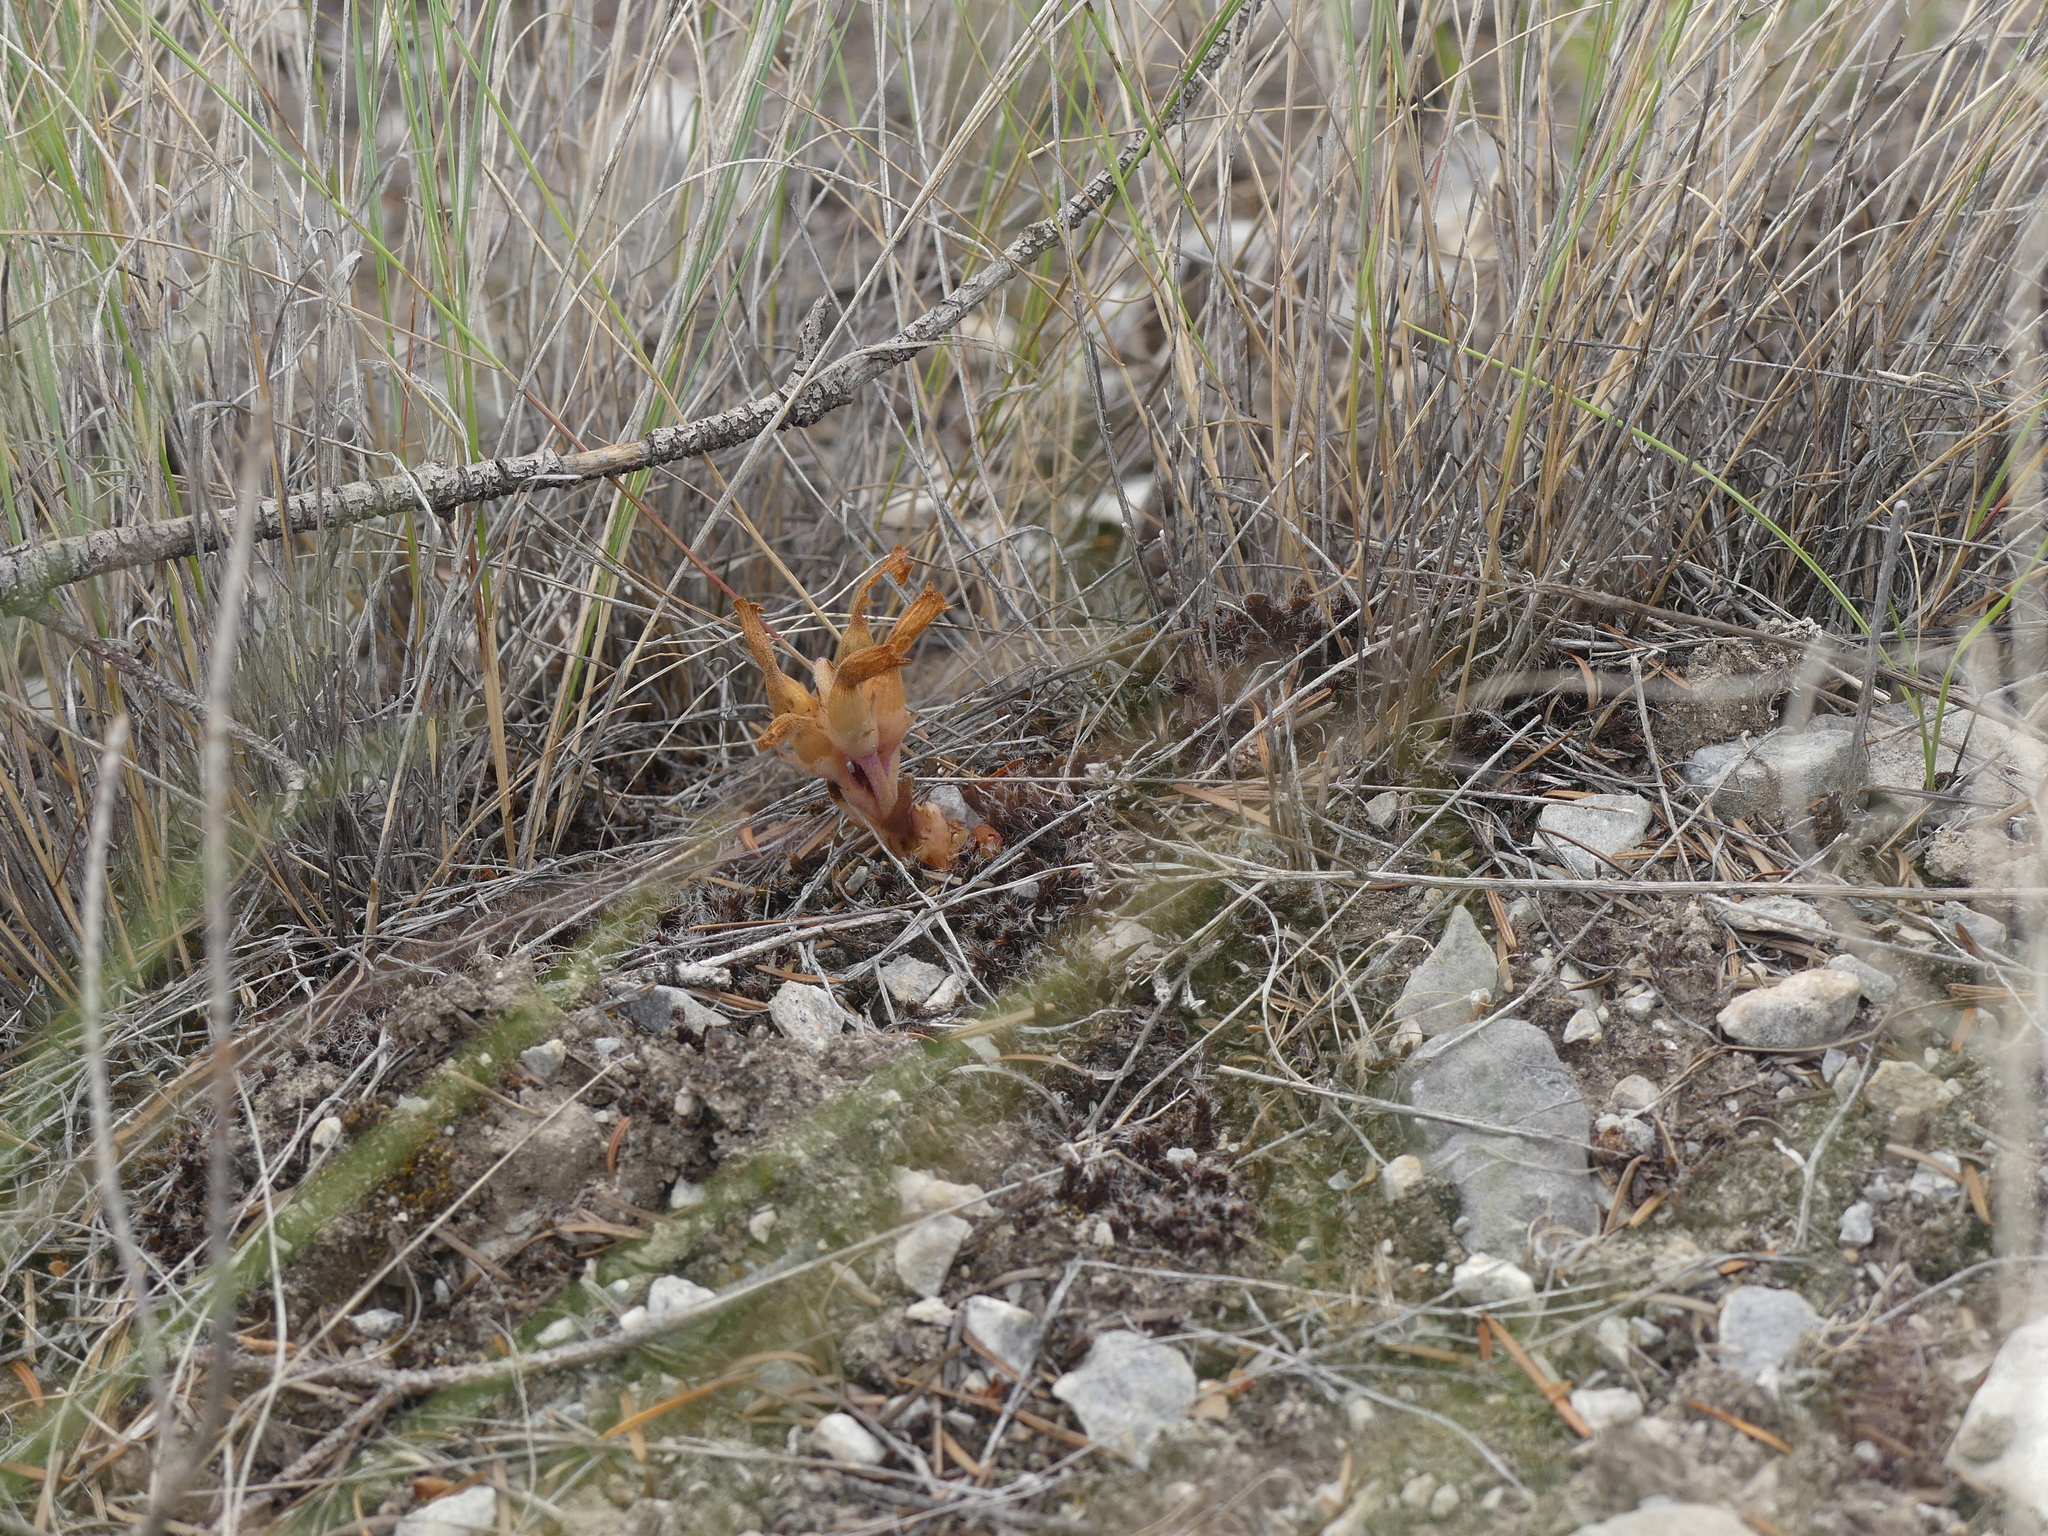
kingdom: Plantae
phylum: Tracheophyta
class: Magnoliopsida
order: Lamiales
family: Orobanchaceae
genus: Aphyllon
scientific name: Aphyllon fasciculatum
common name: Clustered broomrape
